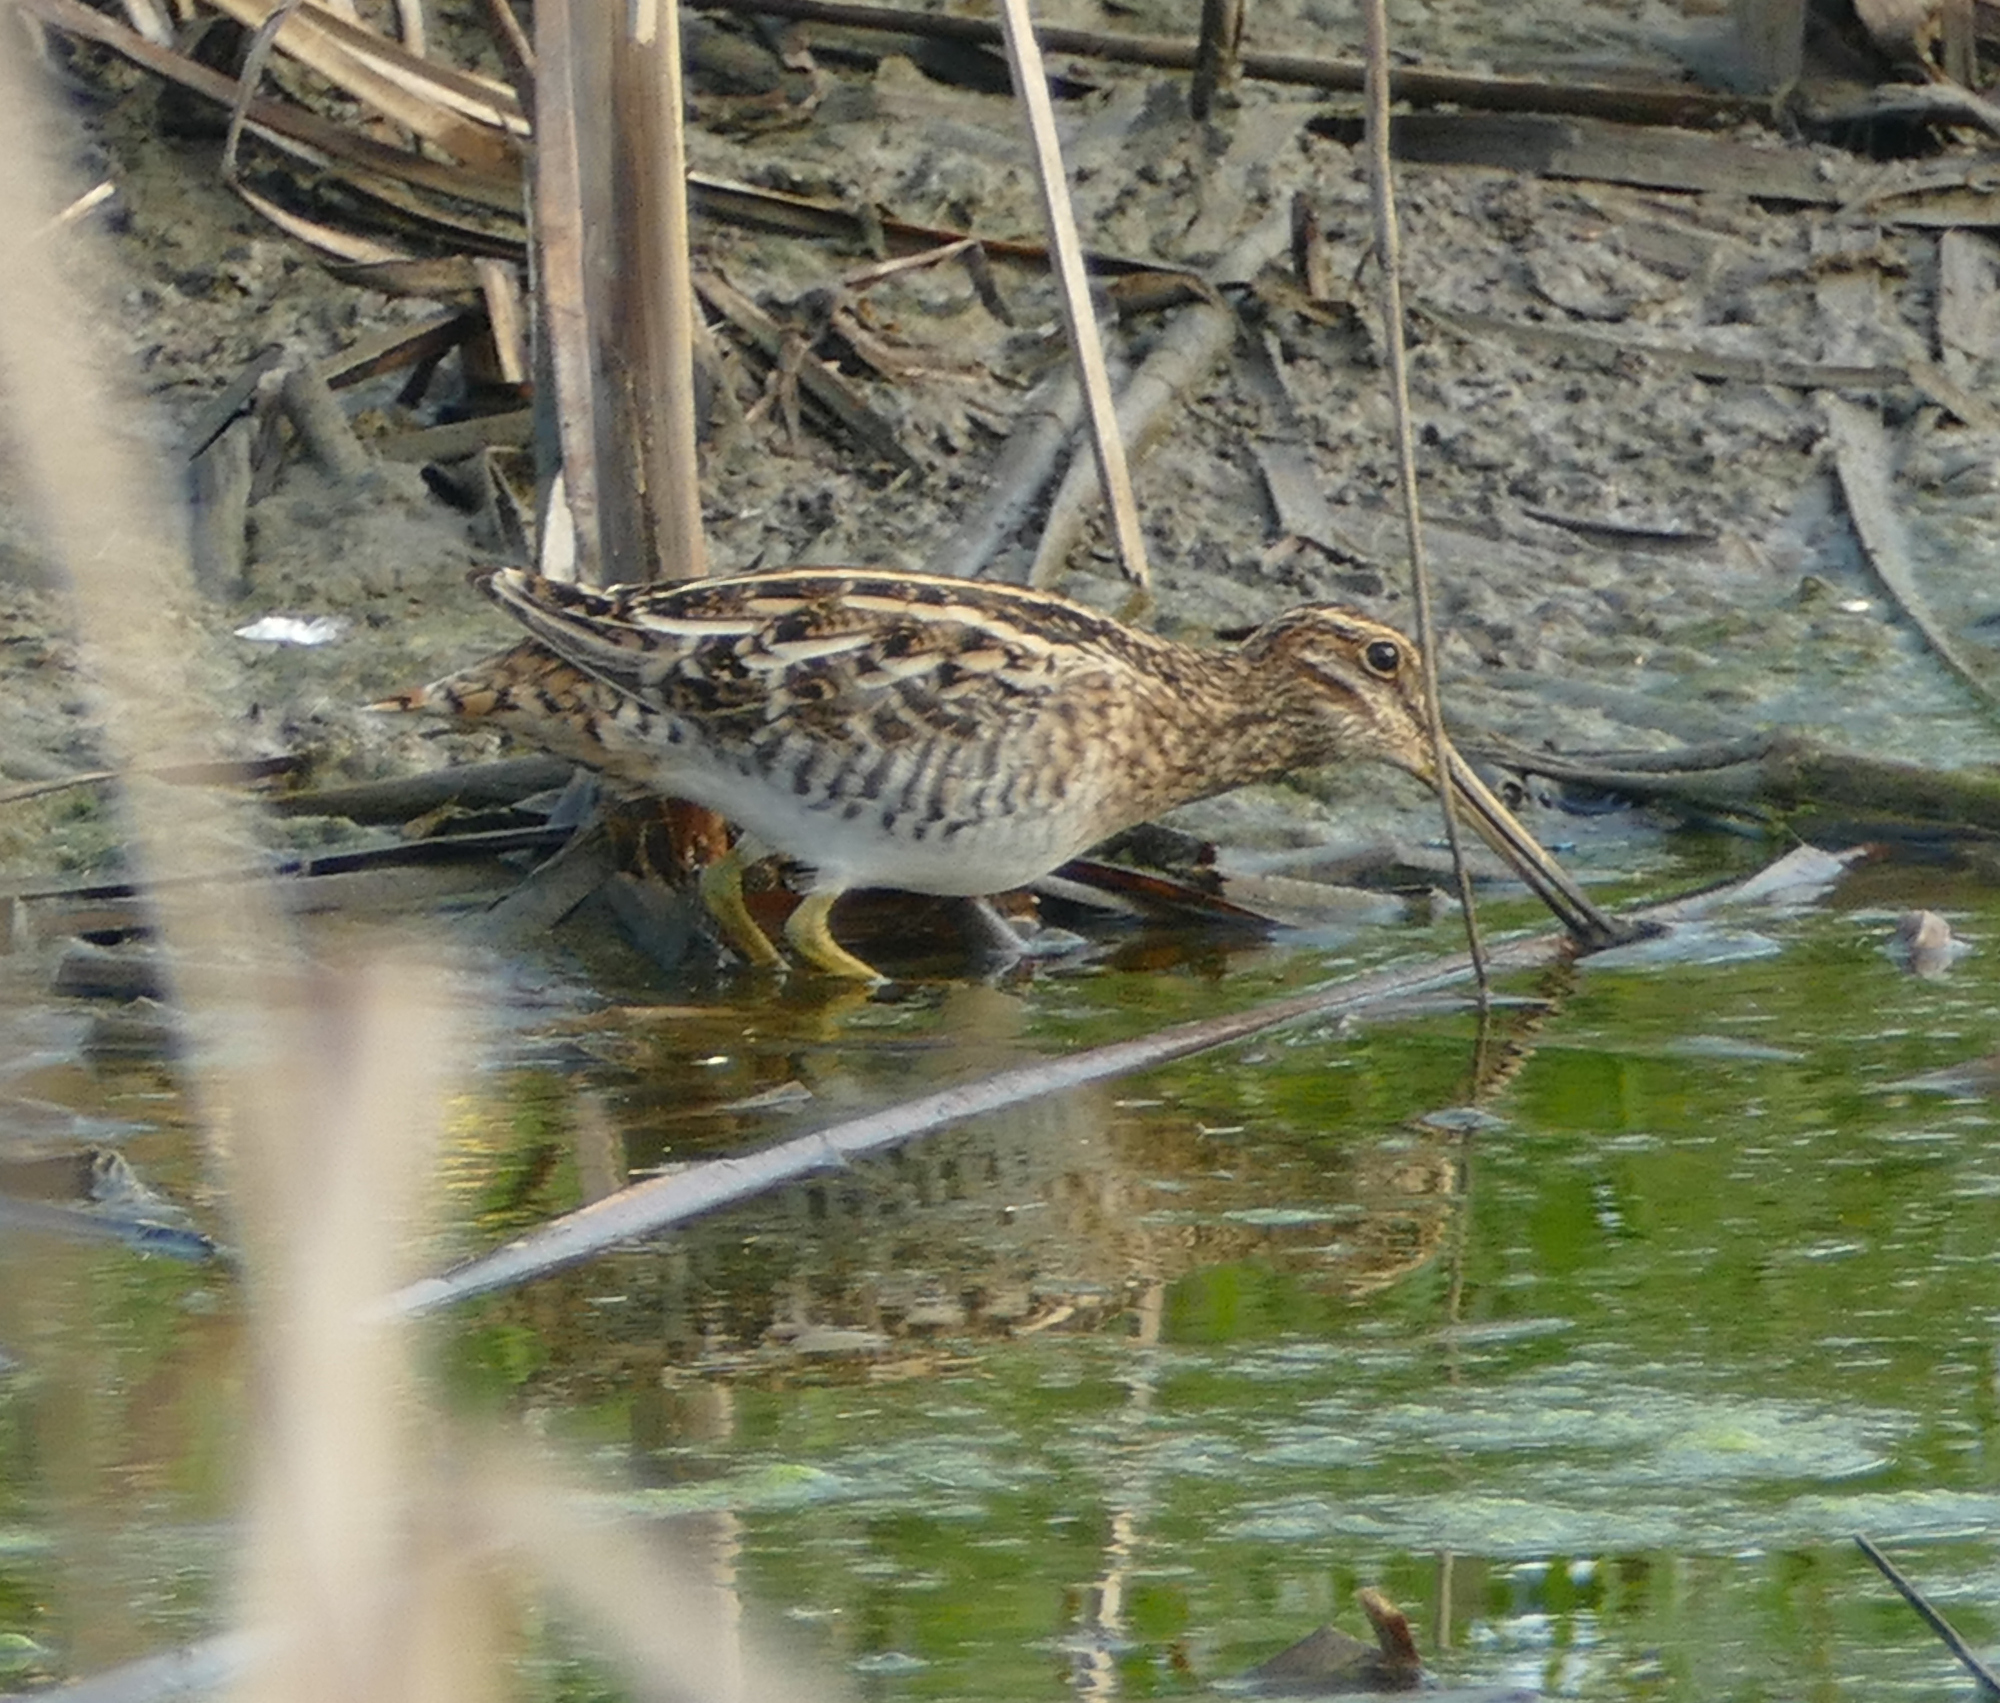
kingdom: Animalia
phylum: Chordata
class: Aves
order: Charadriiformes
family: Scolopacidae
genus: Gallinago
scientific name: Gallinago delicata
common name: Wilson's snipe
